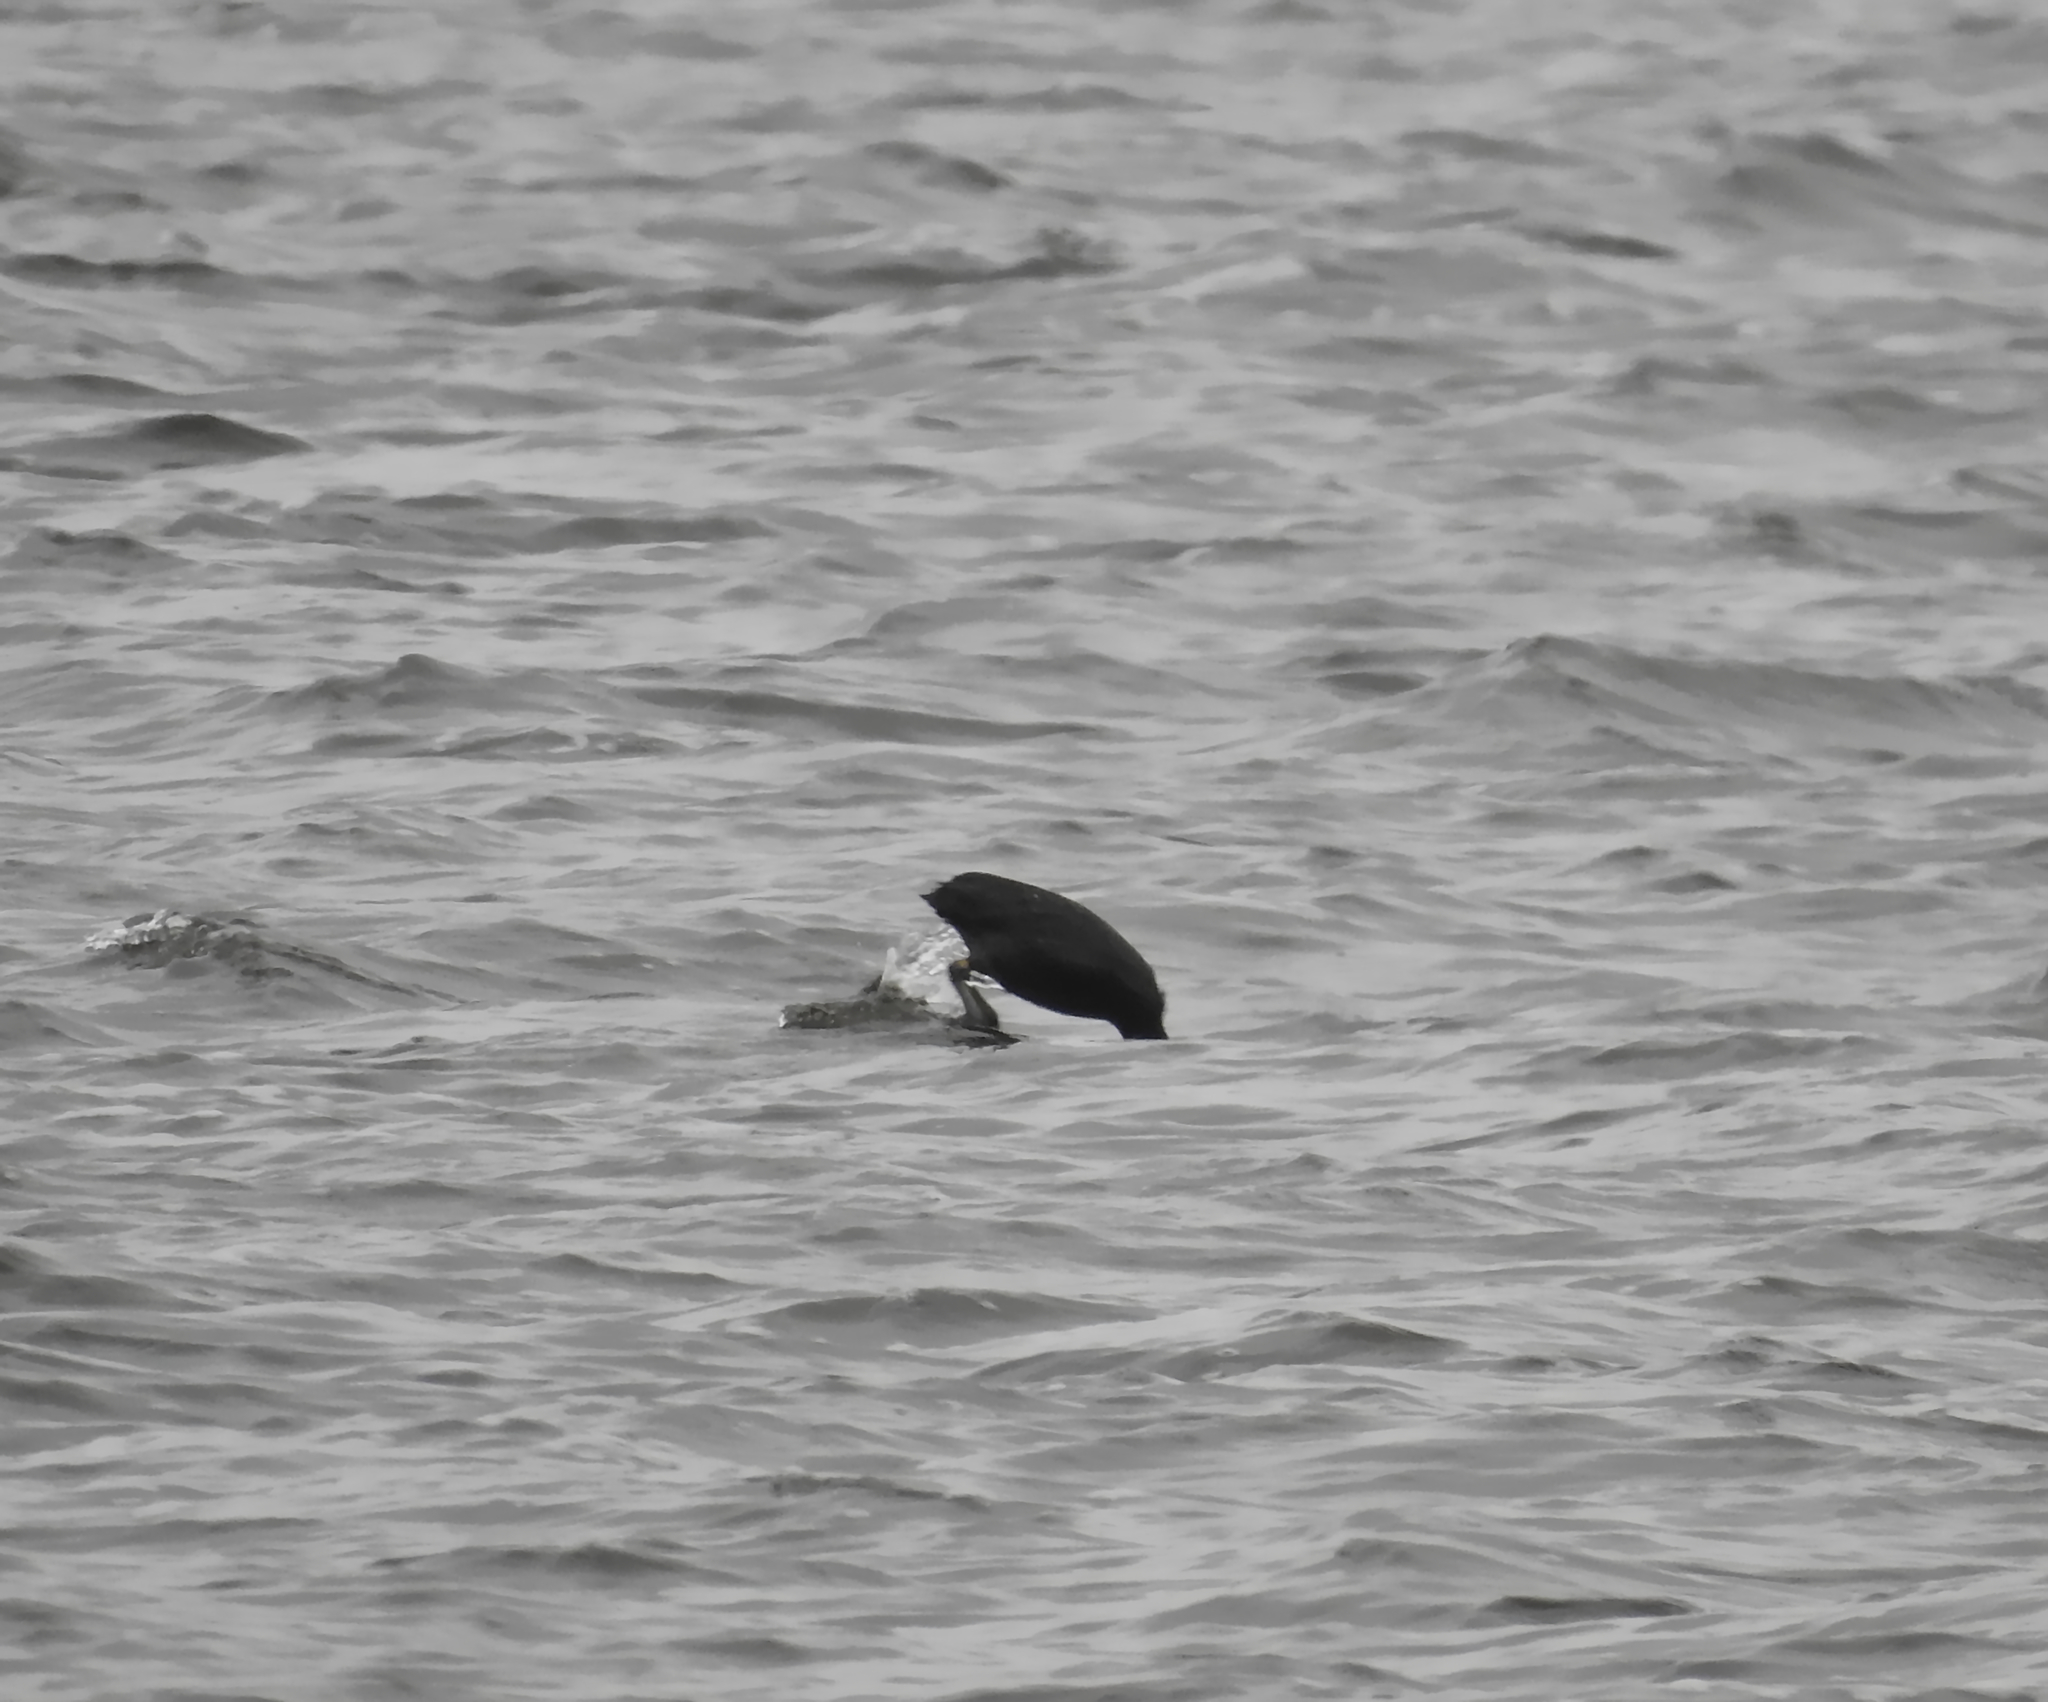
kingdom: Animalia
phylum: Chordata
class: Aves
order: Gruiformes
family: Rallidae
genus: Fulica
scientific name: Fulica atra
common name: Eurasian coot
